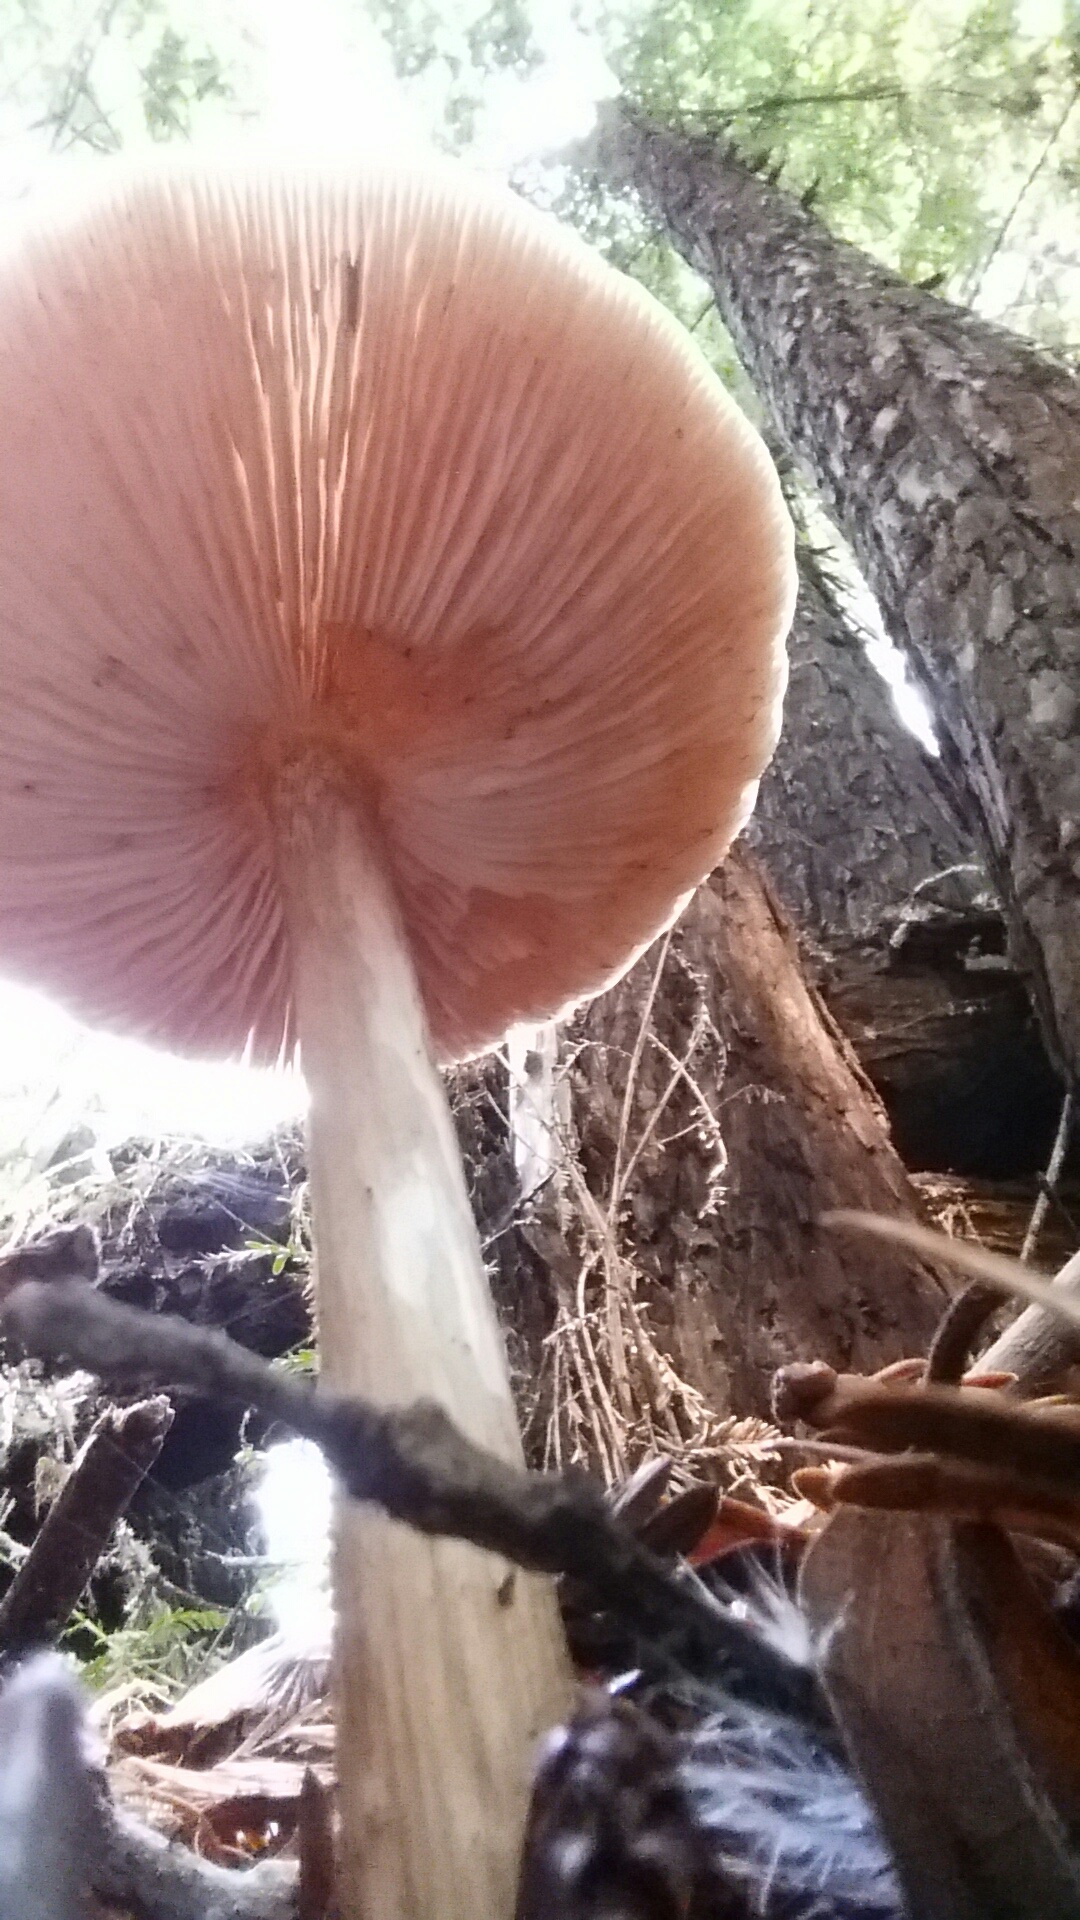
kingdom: Fungi
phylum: Basidiomycota
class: Agaricomycetes
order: Agaricales
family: Pluteaceae
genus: Pluteus
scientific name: Pluteus exilis
